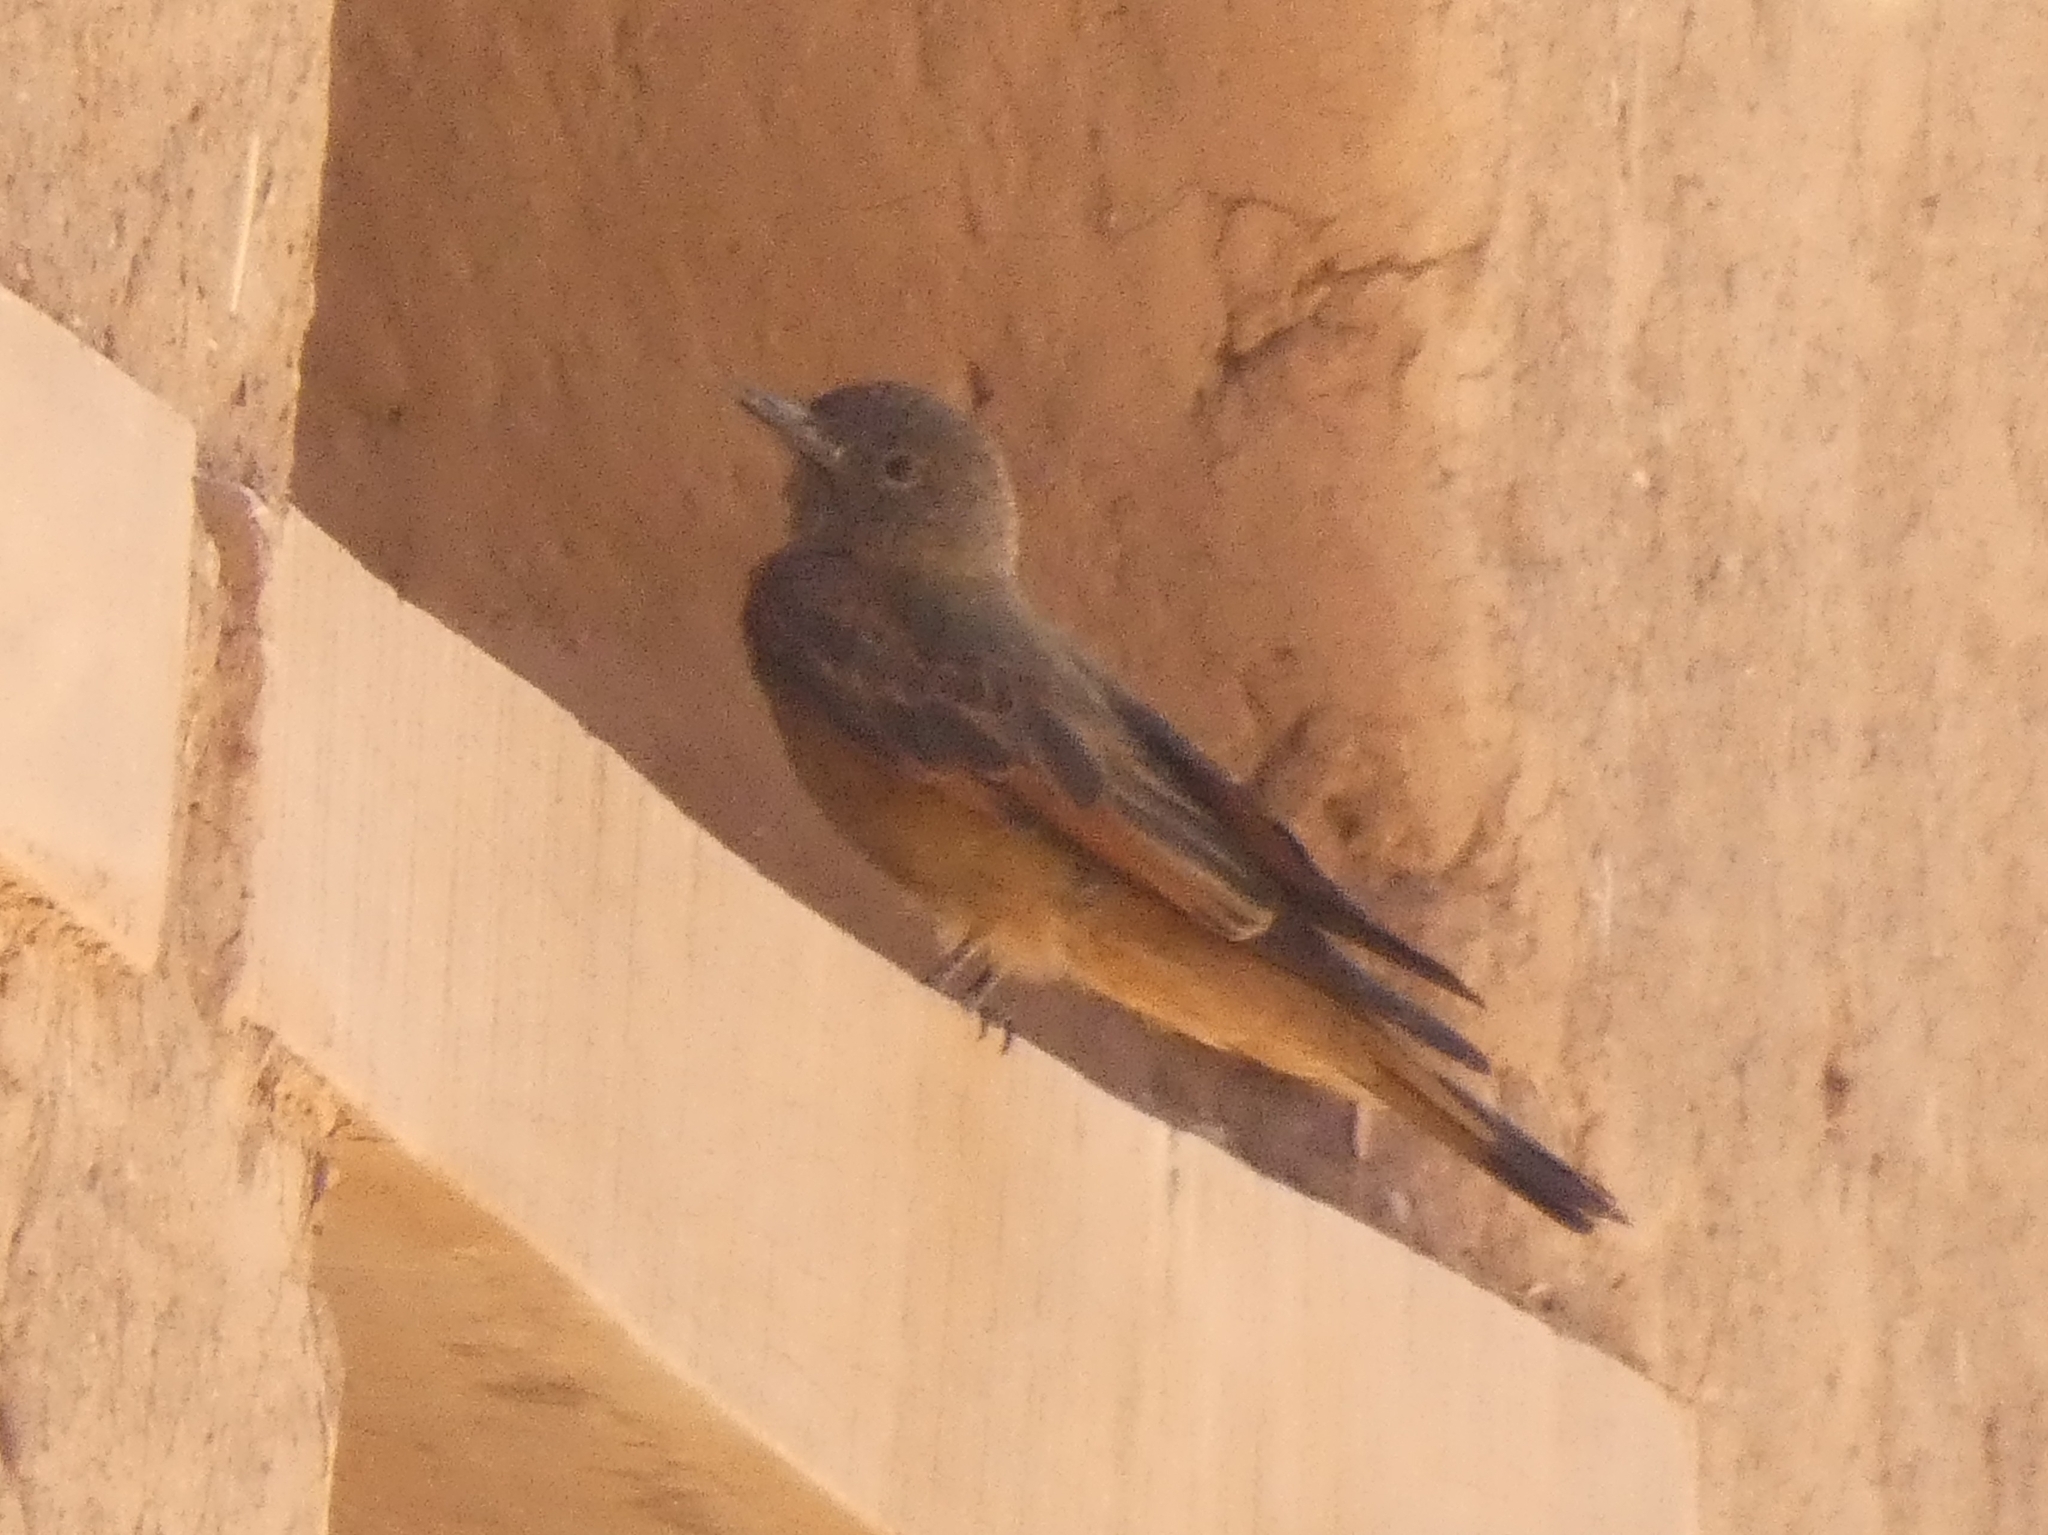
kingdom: Animalia
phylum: Chordata
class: Aves
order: Passeriformes
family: Tyrannidae
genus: Hirundinea
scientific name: Hirundinea ferruginea
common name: Cliff flycatcher
